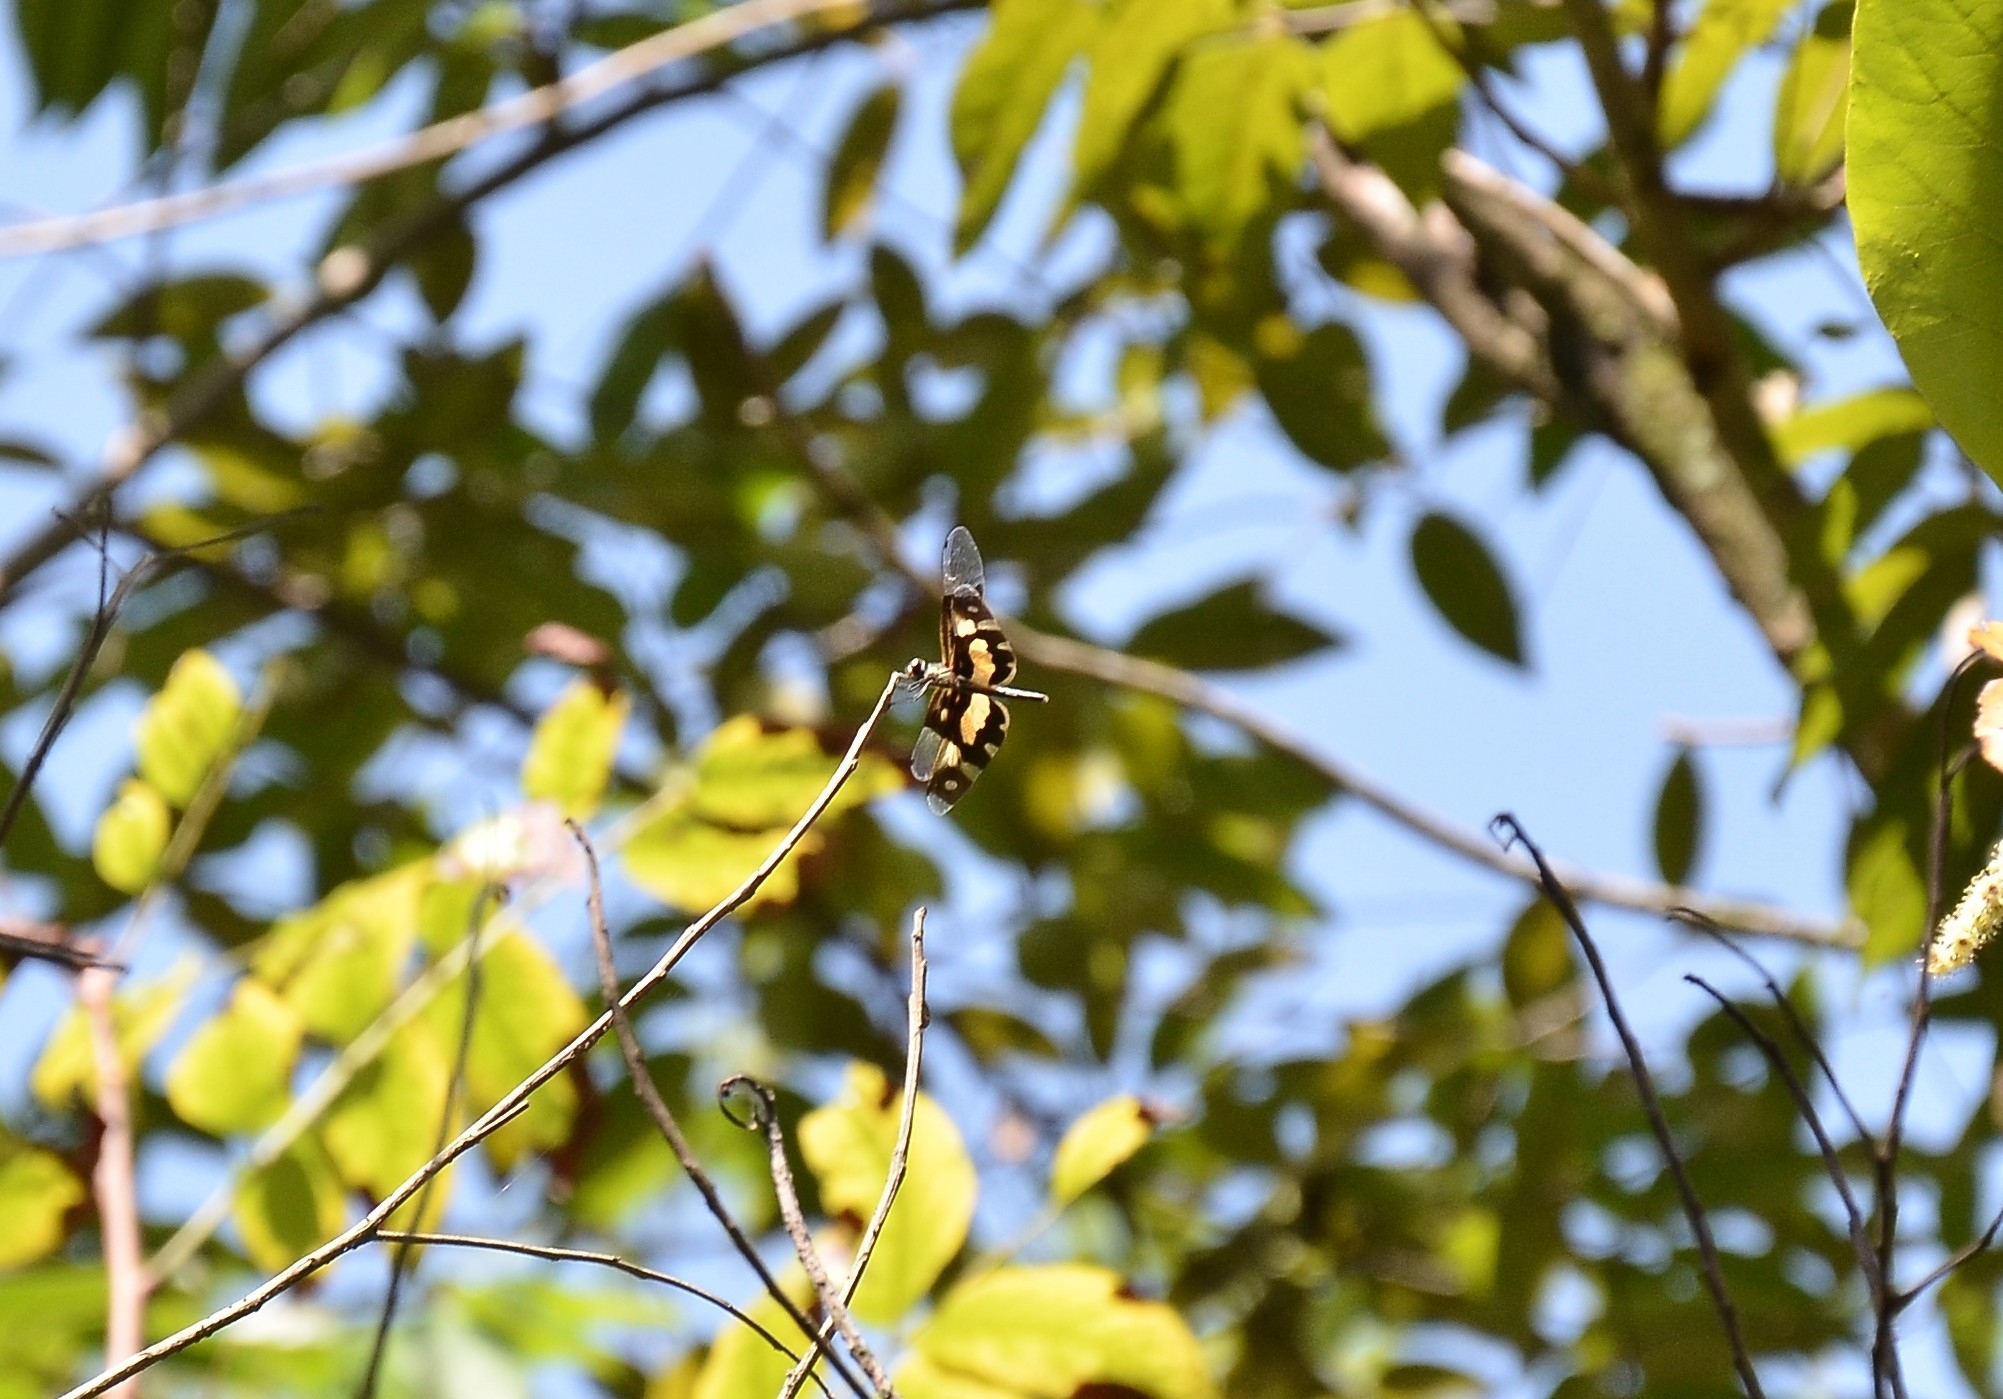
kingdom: Animalia
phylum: Arthropoda
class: Insecta
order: Odonata
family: Libellulidae
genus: Rhyothemis
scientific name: Rhyothemis variegata
